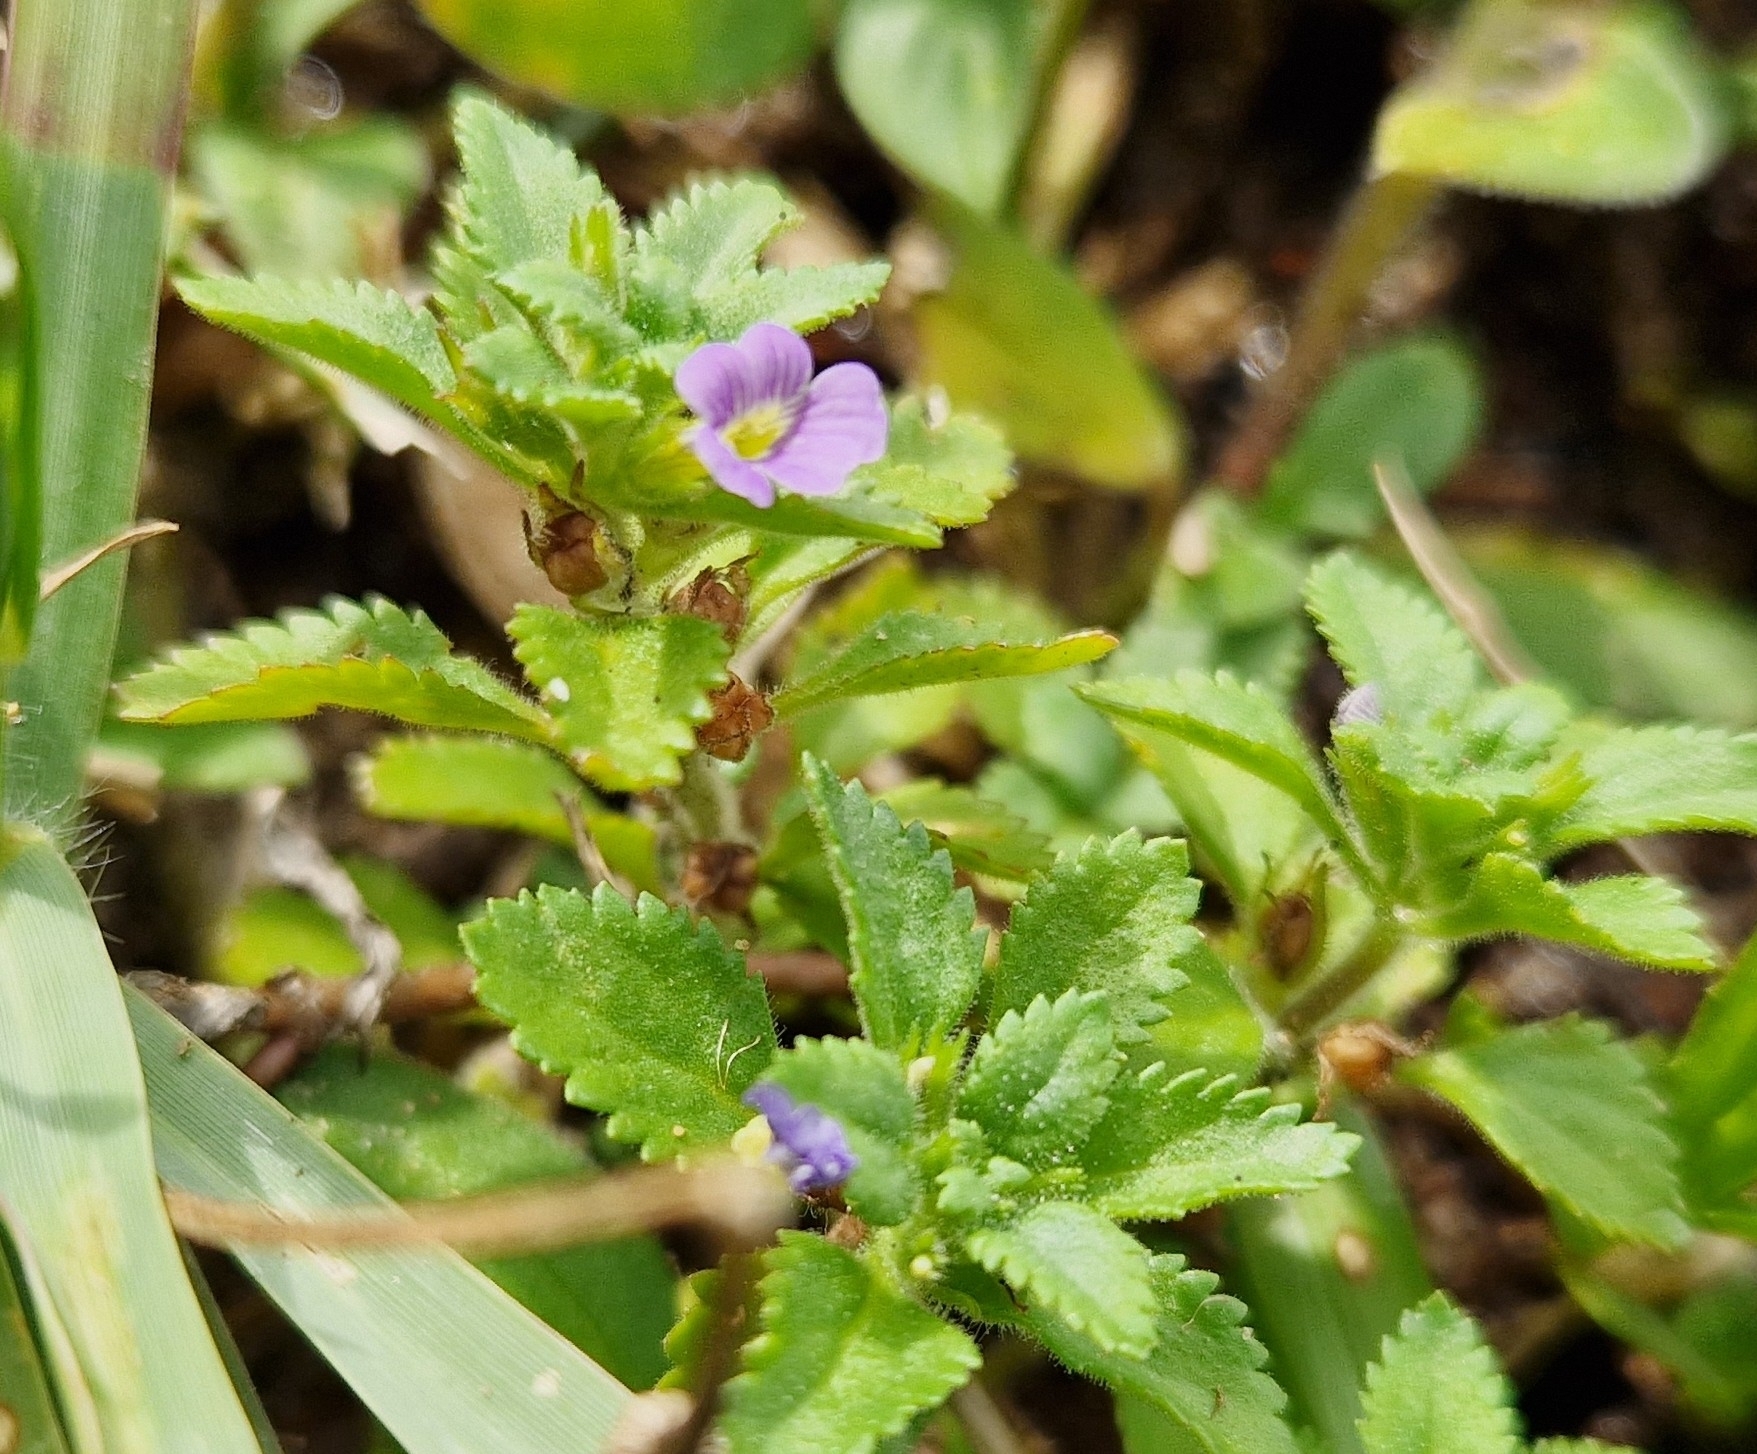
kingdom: Plantae
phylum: Tracheophyta
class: Magnoliopsida
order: Lamiales
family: Plantaginaceae
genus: Stemodia
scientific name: Stemodia verticillata
